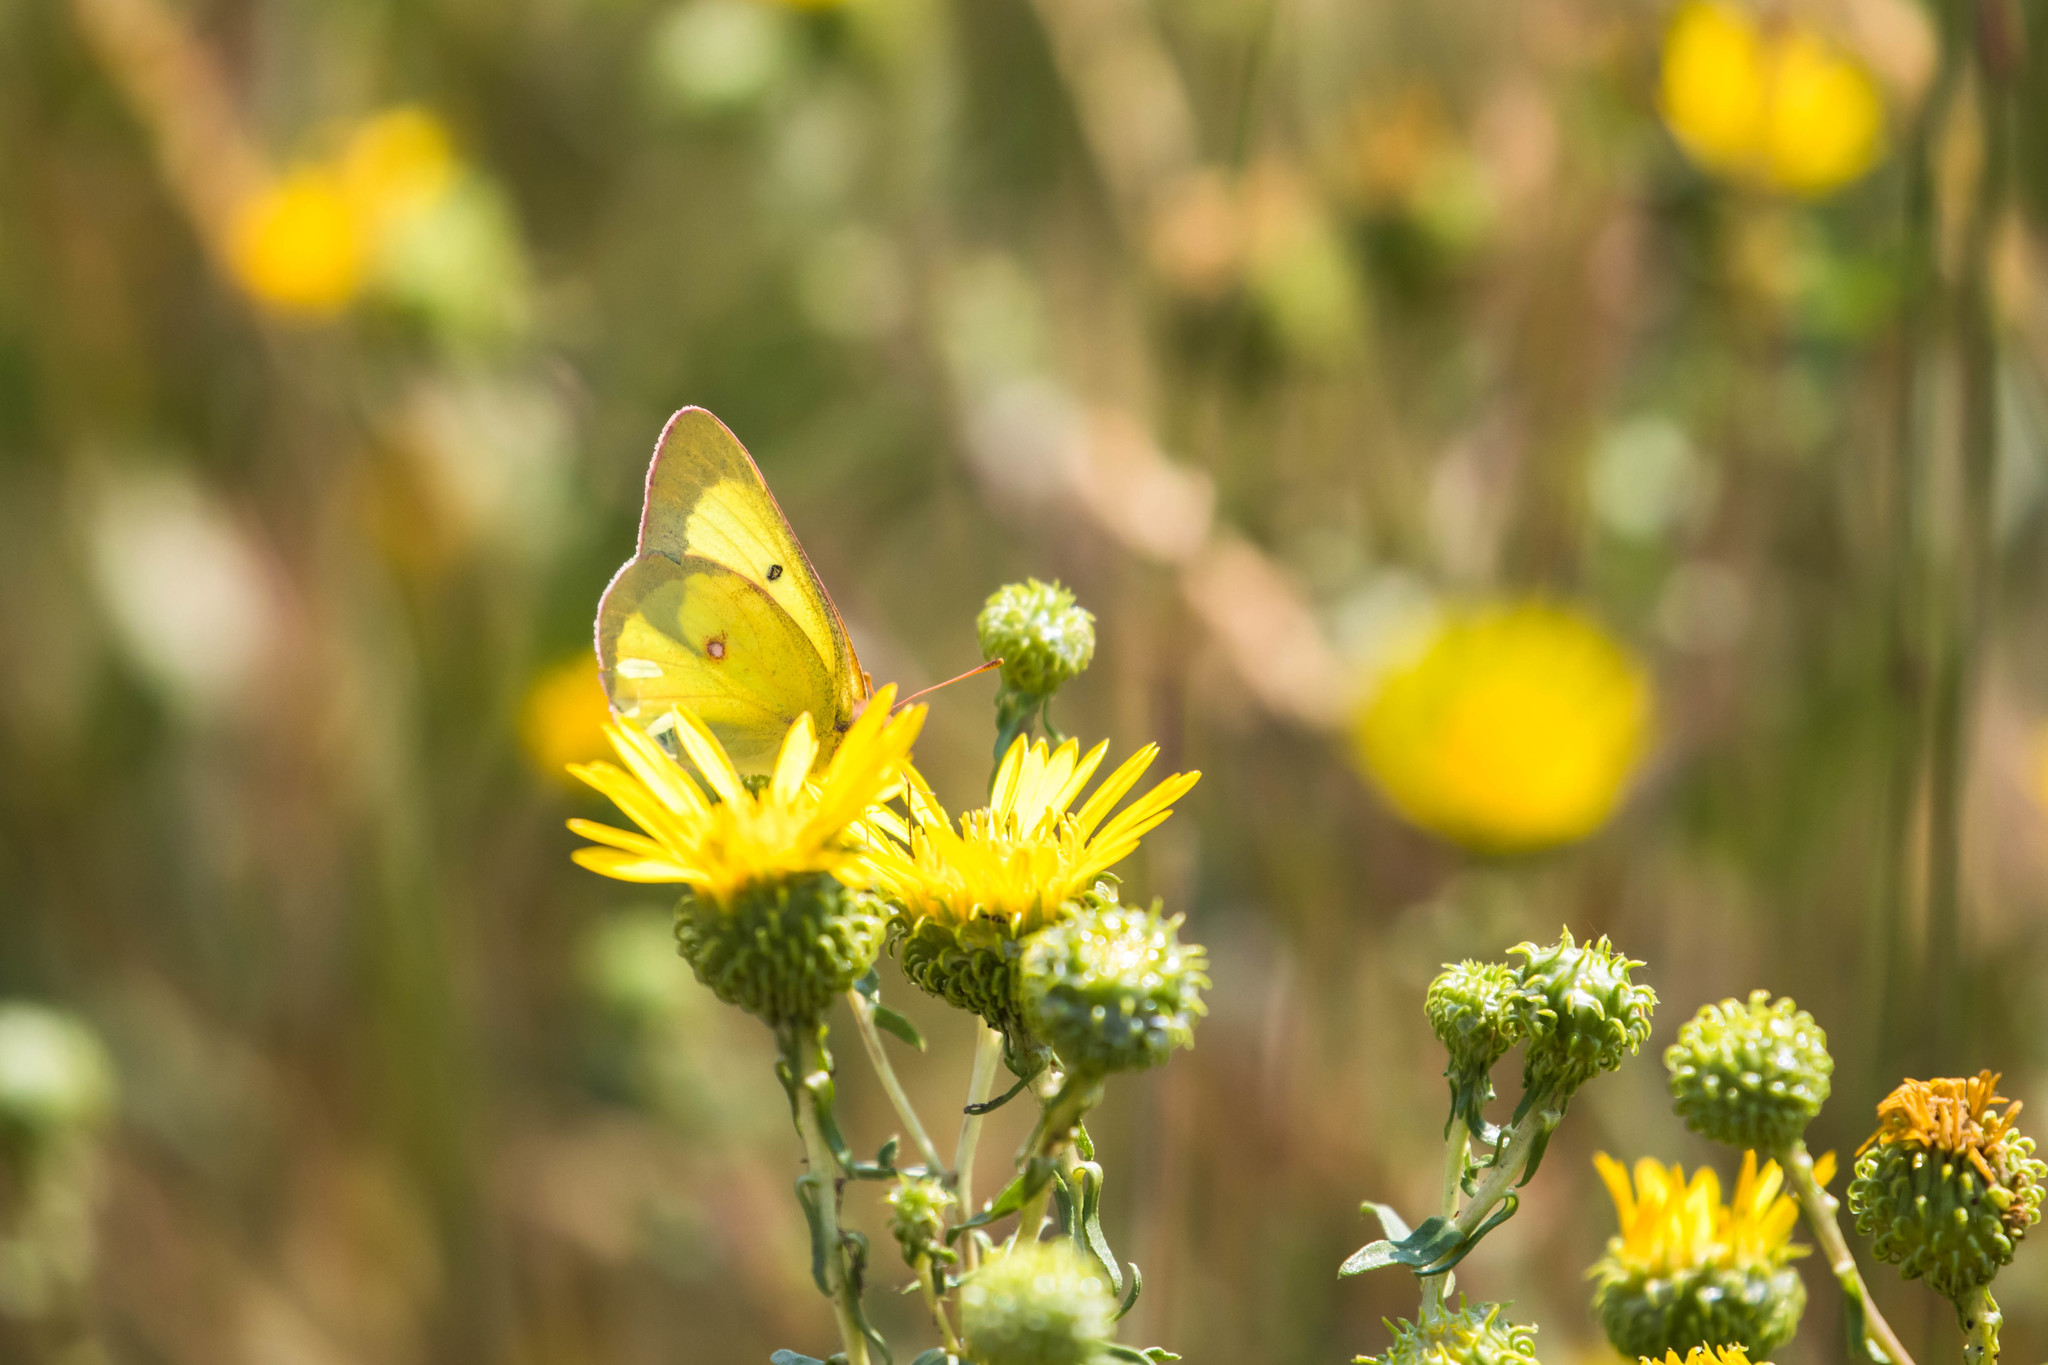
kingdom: Animalia
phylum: Arthropoda
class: Insecta
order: Lepidoptera
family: Pieridae
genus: Colias
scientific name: Colias philodice
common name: Clouded sulphur
